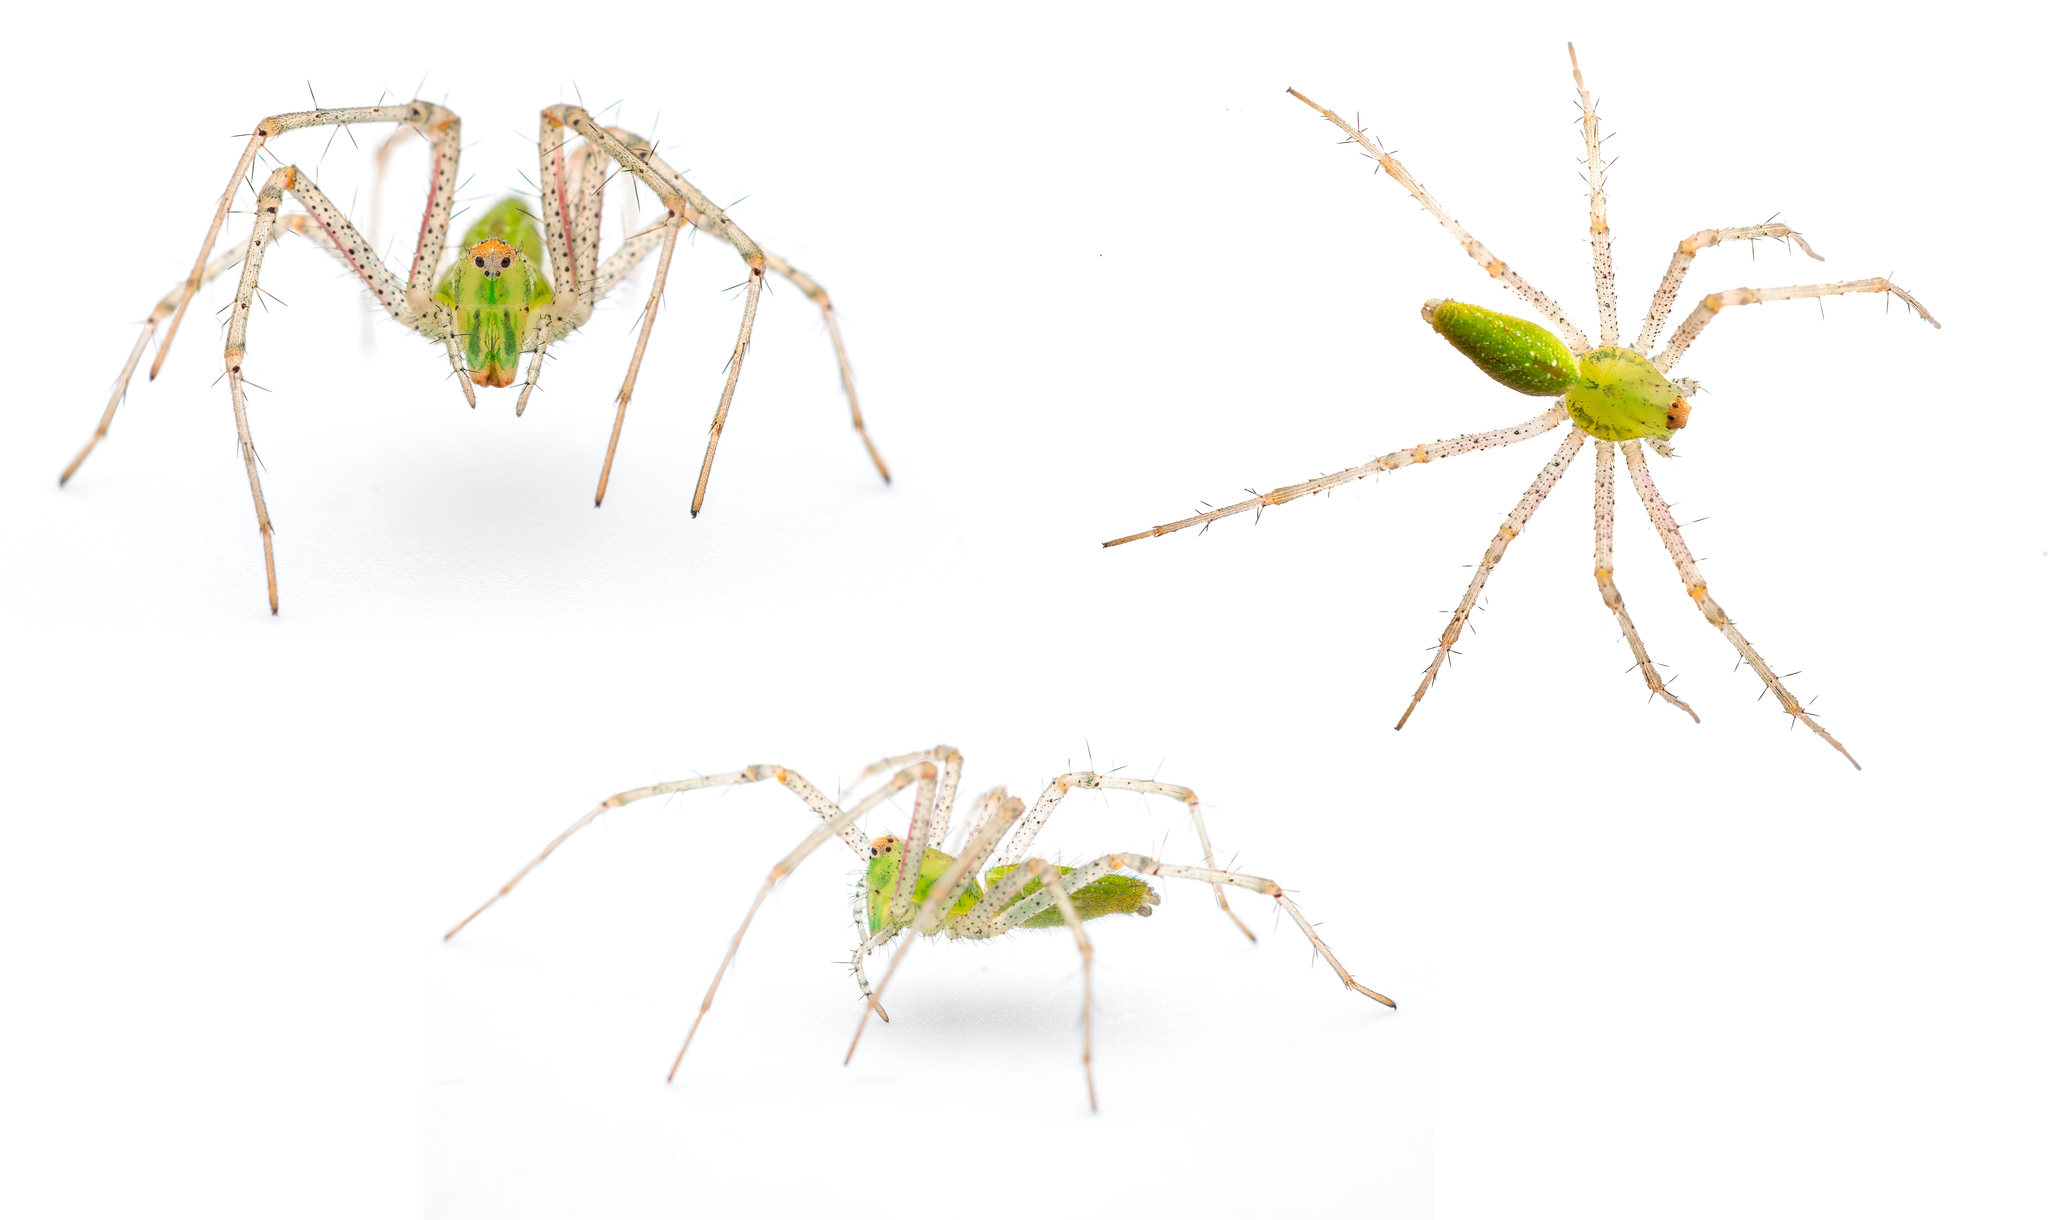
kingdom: Animalia
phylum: Arthropoda
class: Arachnida
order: Araneae
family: Oxyopidae
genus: Peucetia
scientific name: Peucetia viridis
